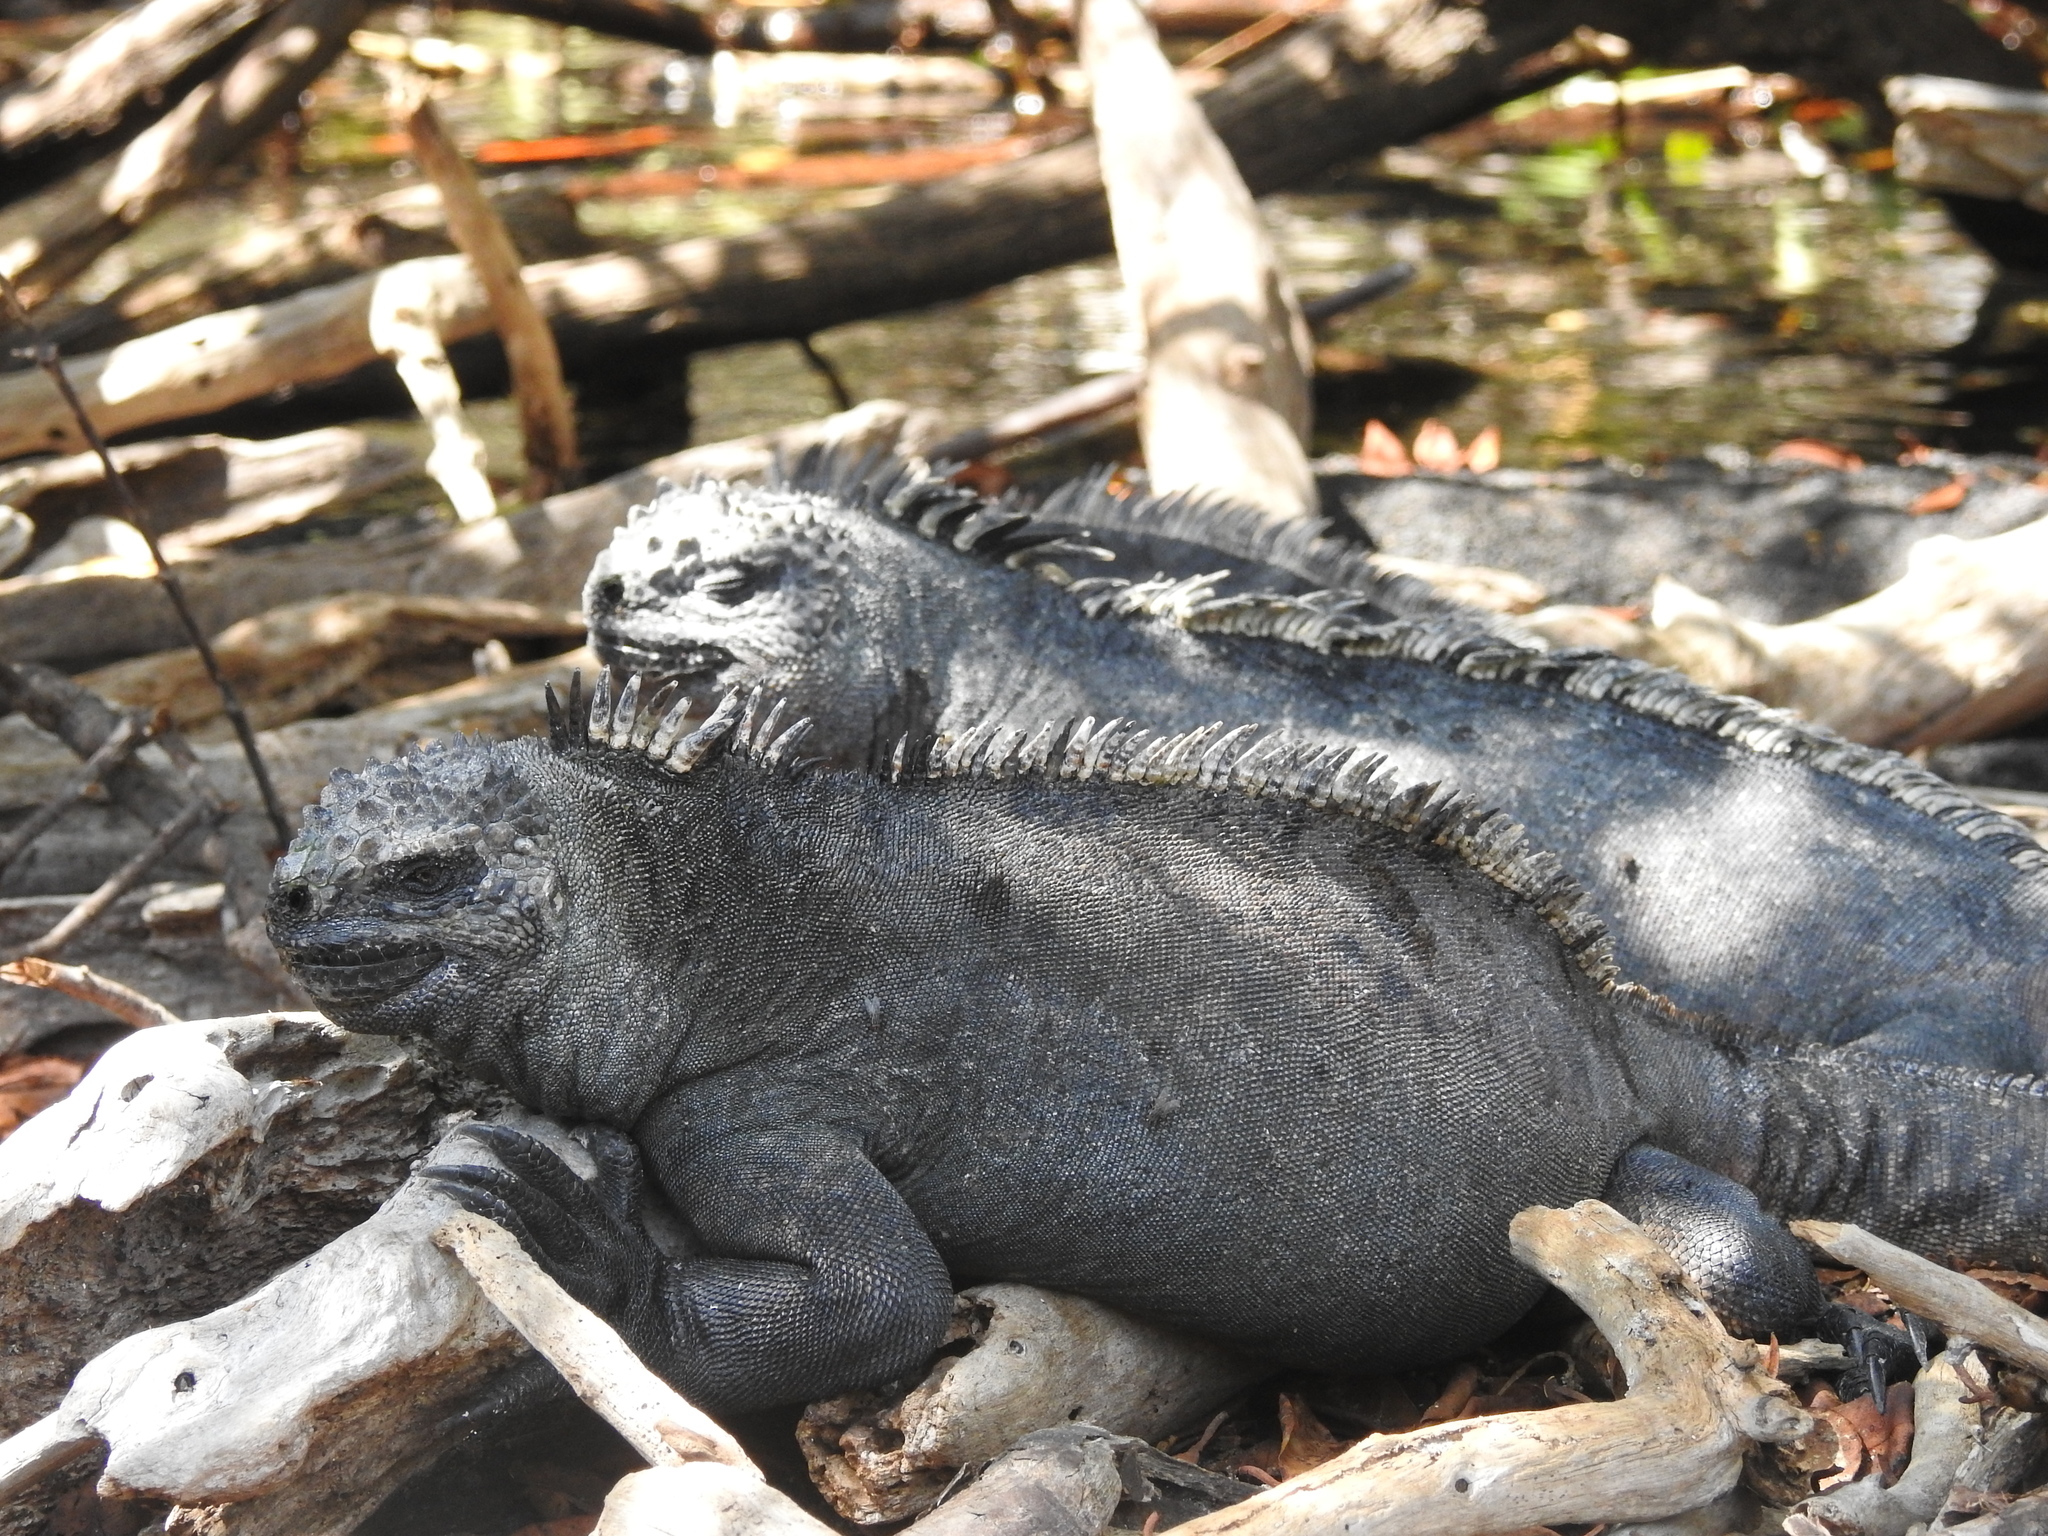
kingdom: Animalia
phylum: Chordata
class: Squamata
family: Iguanidae
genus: Amblyrhynchus
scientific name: Amblyrhynchus cristatus
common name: Marine iguana
